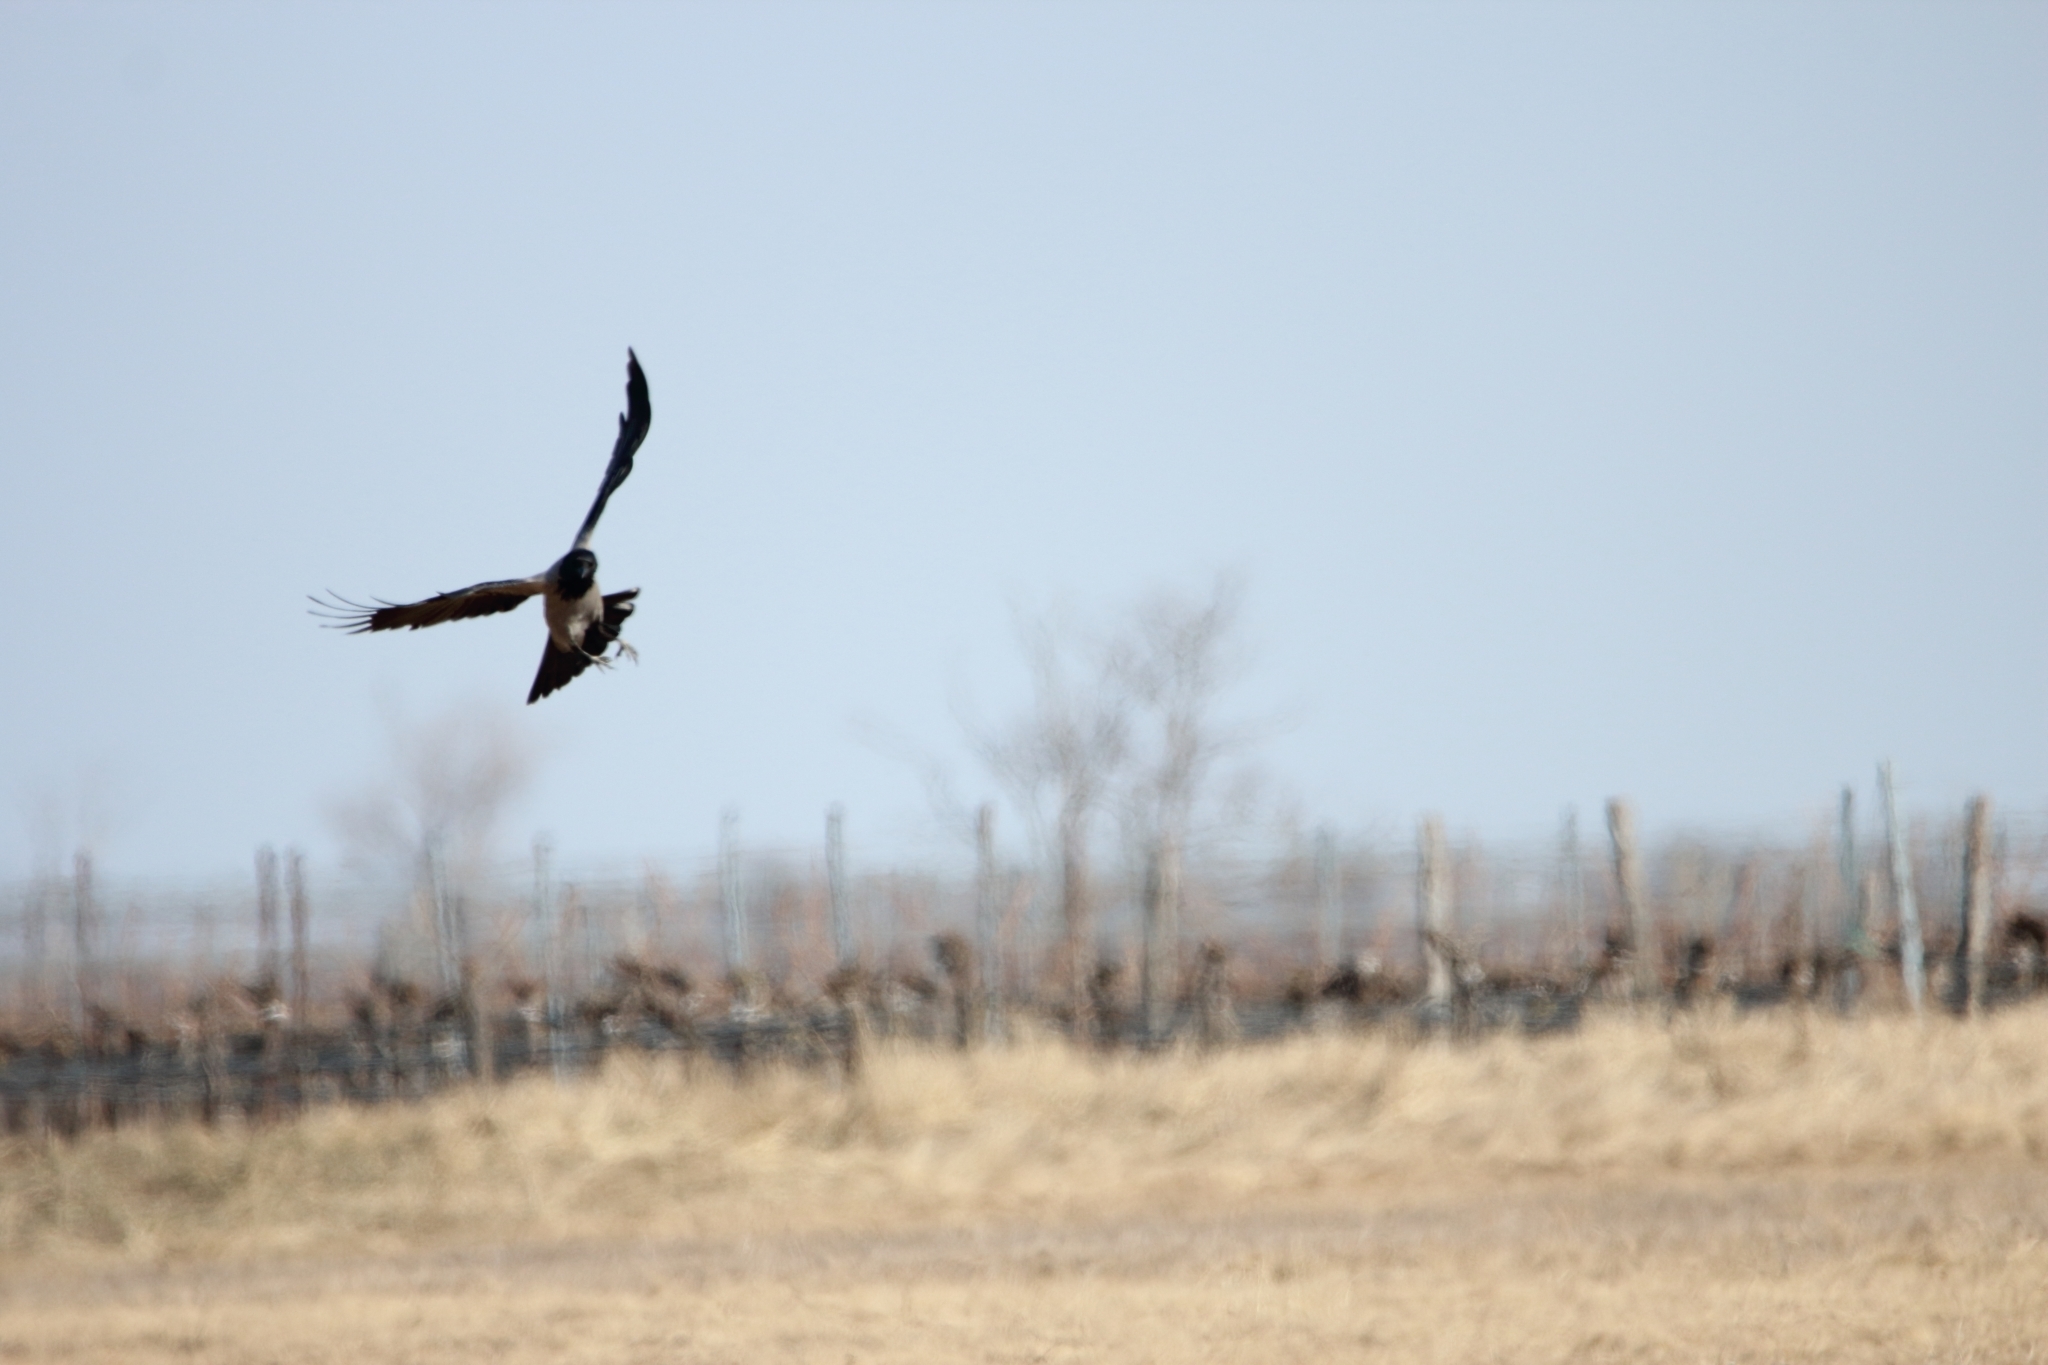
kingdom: Animalia
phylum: Chordata
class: Aves
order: Passeriformes
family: Corvidae
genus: Corvus
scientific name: Corvus cornix
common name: Hooded crow
